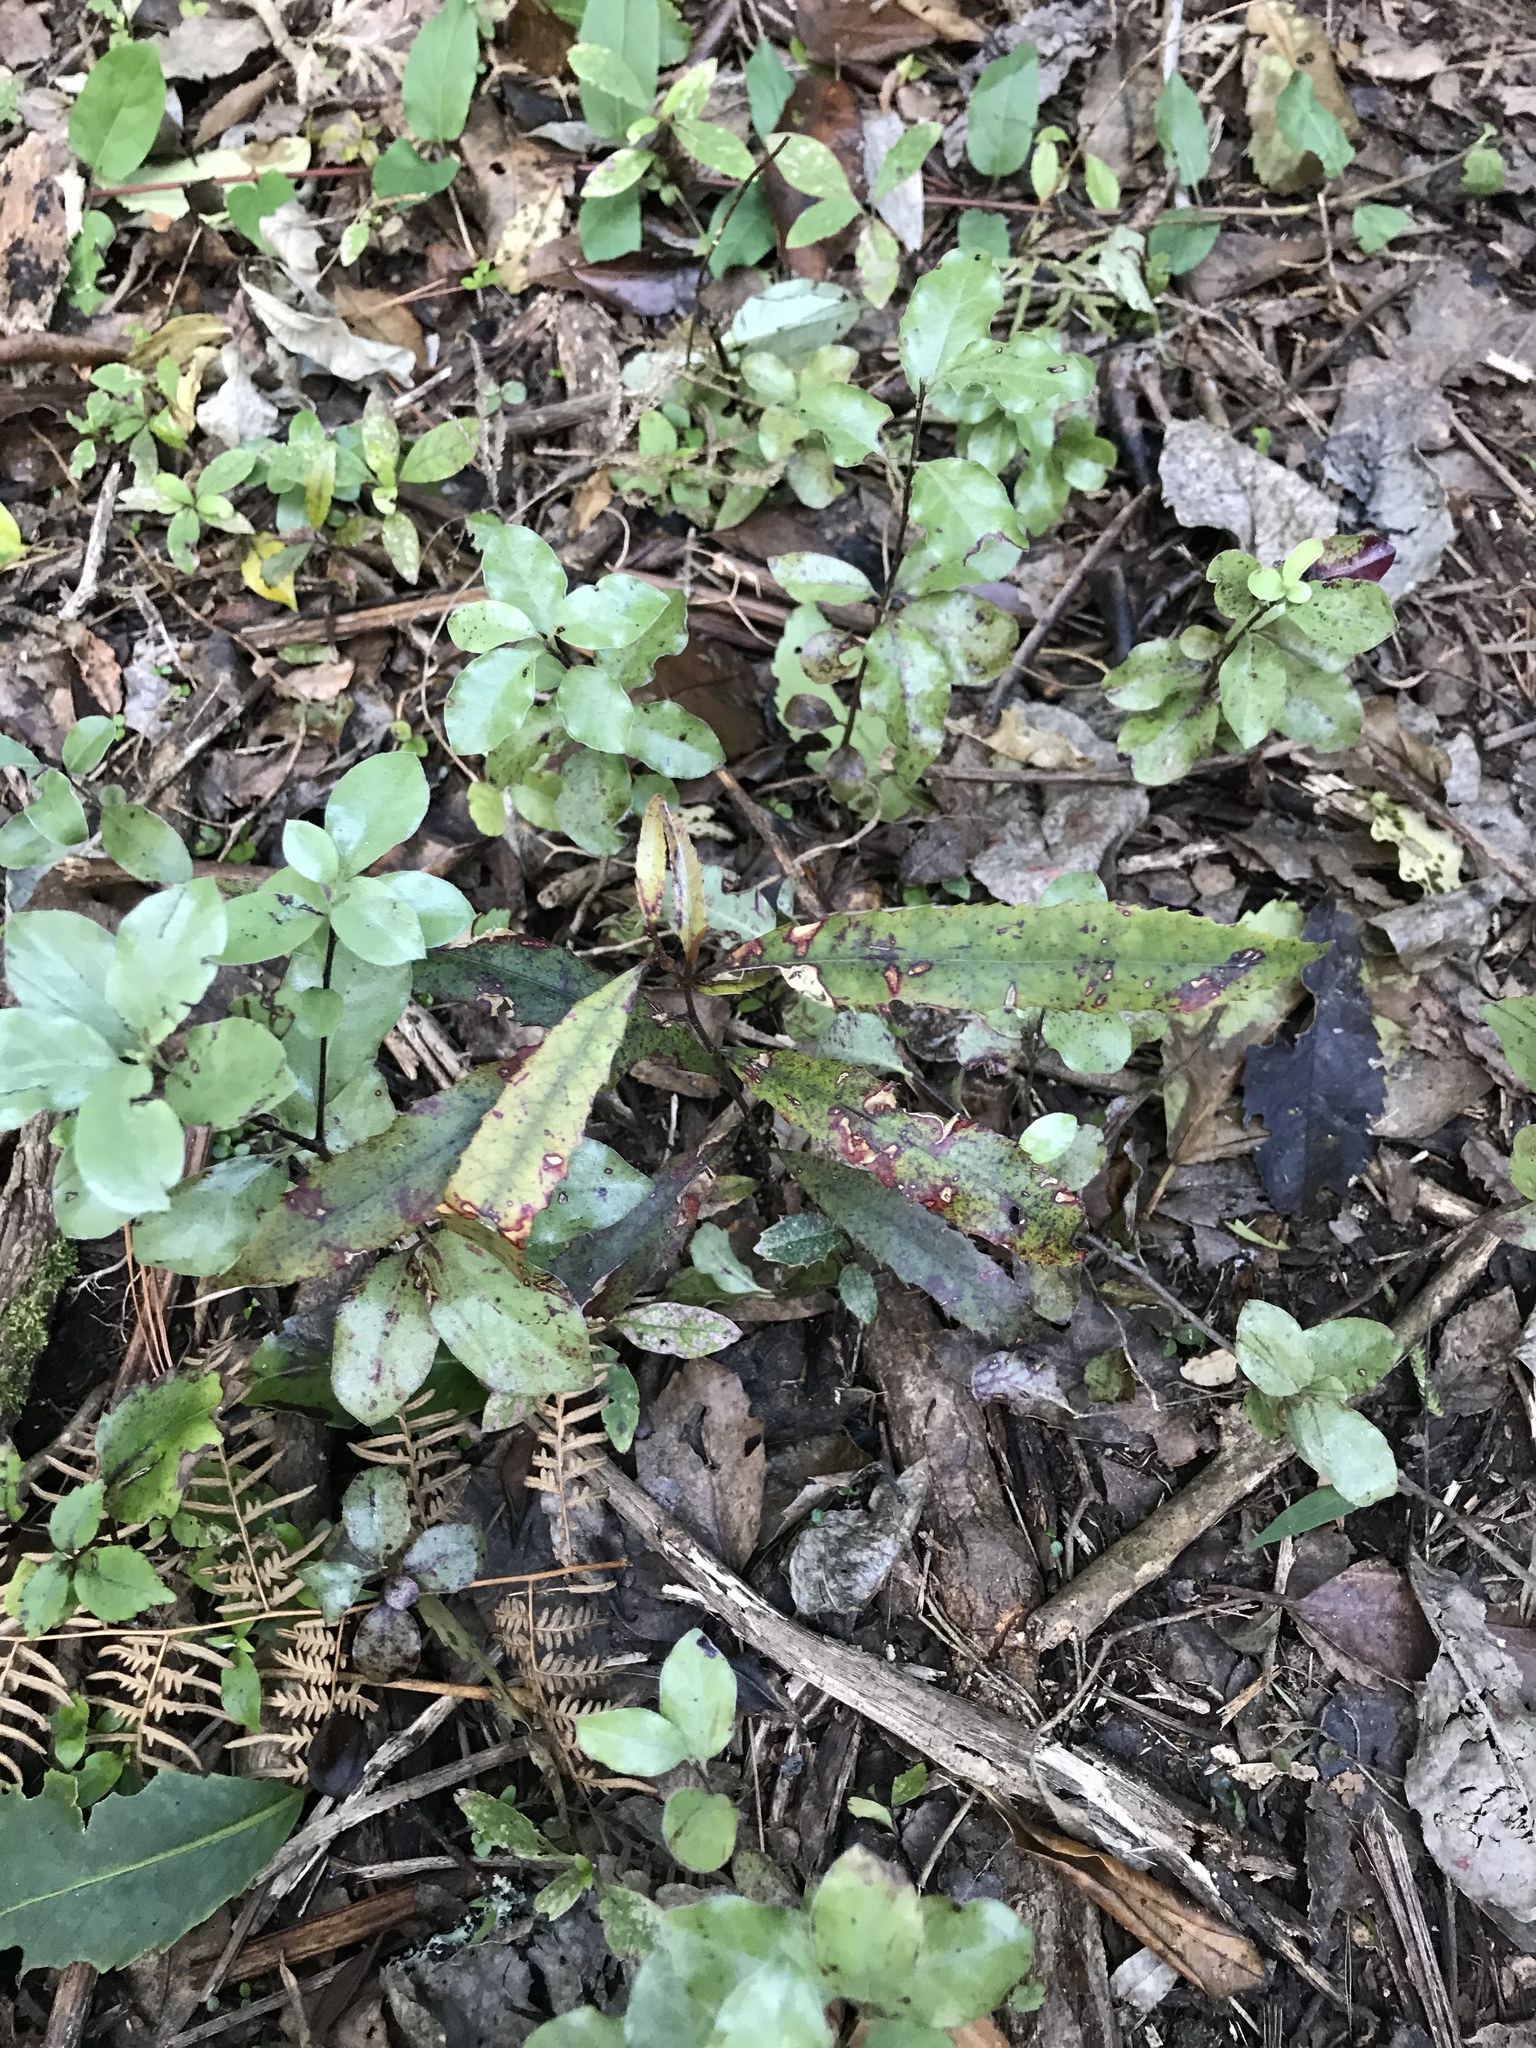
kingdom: Plantae
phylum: Tracheophyta
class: Magnoliopsida
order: Oxalidales
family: Elaeocarpaceae
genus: Elaeocarpus
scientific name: Elaeocarpus dentatus
